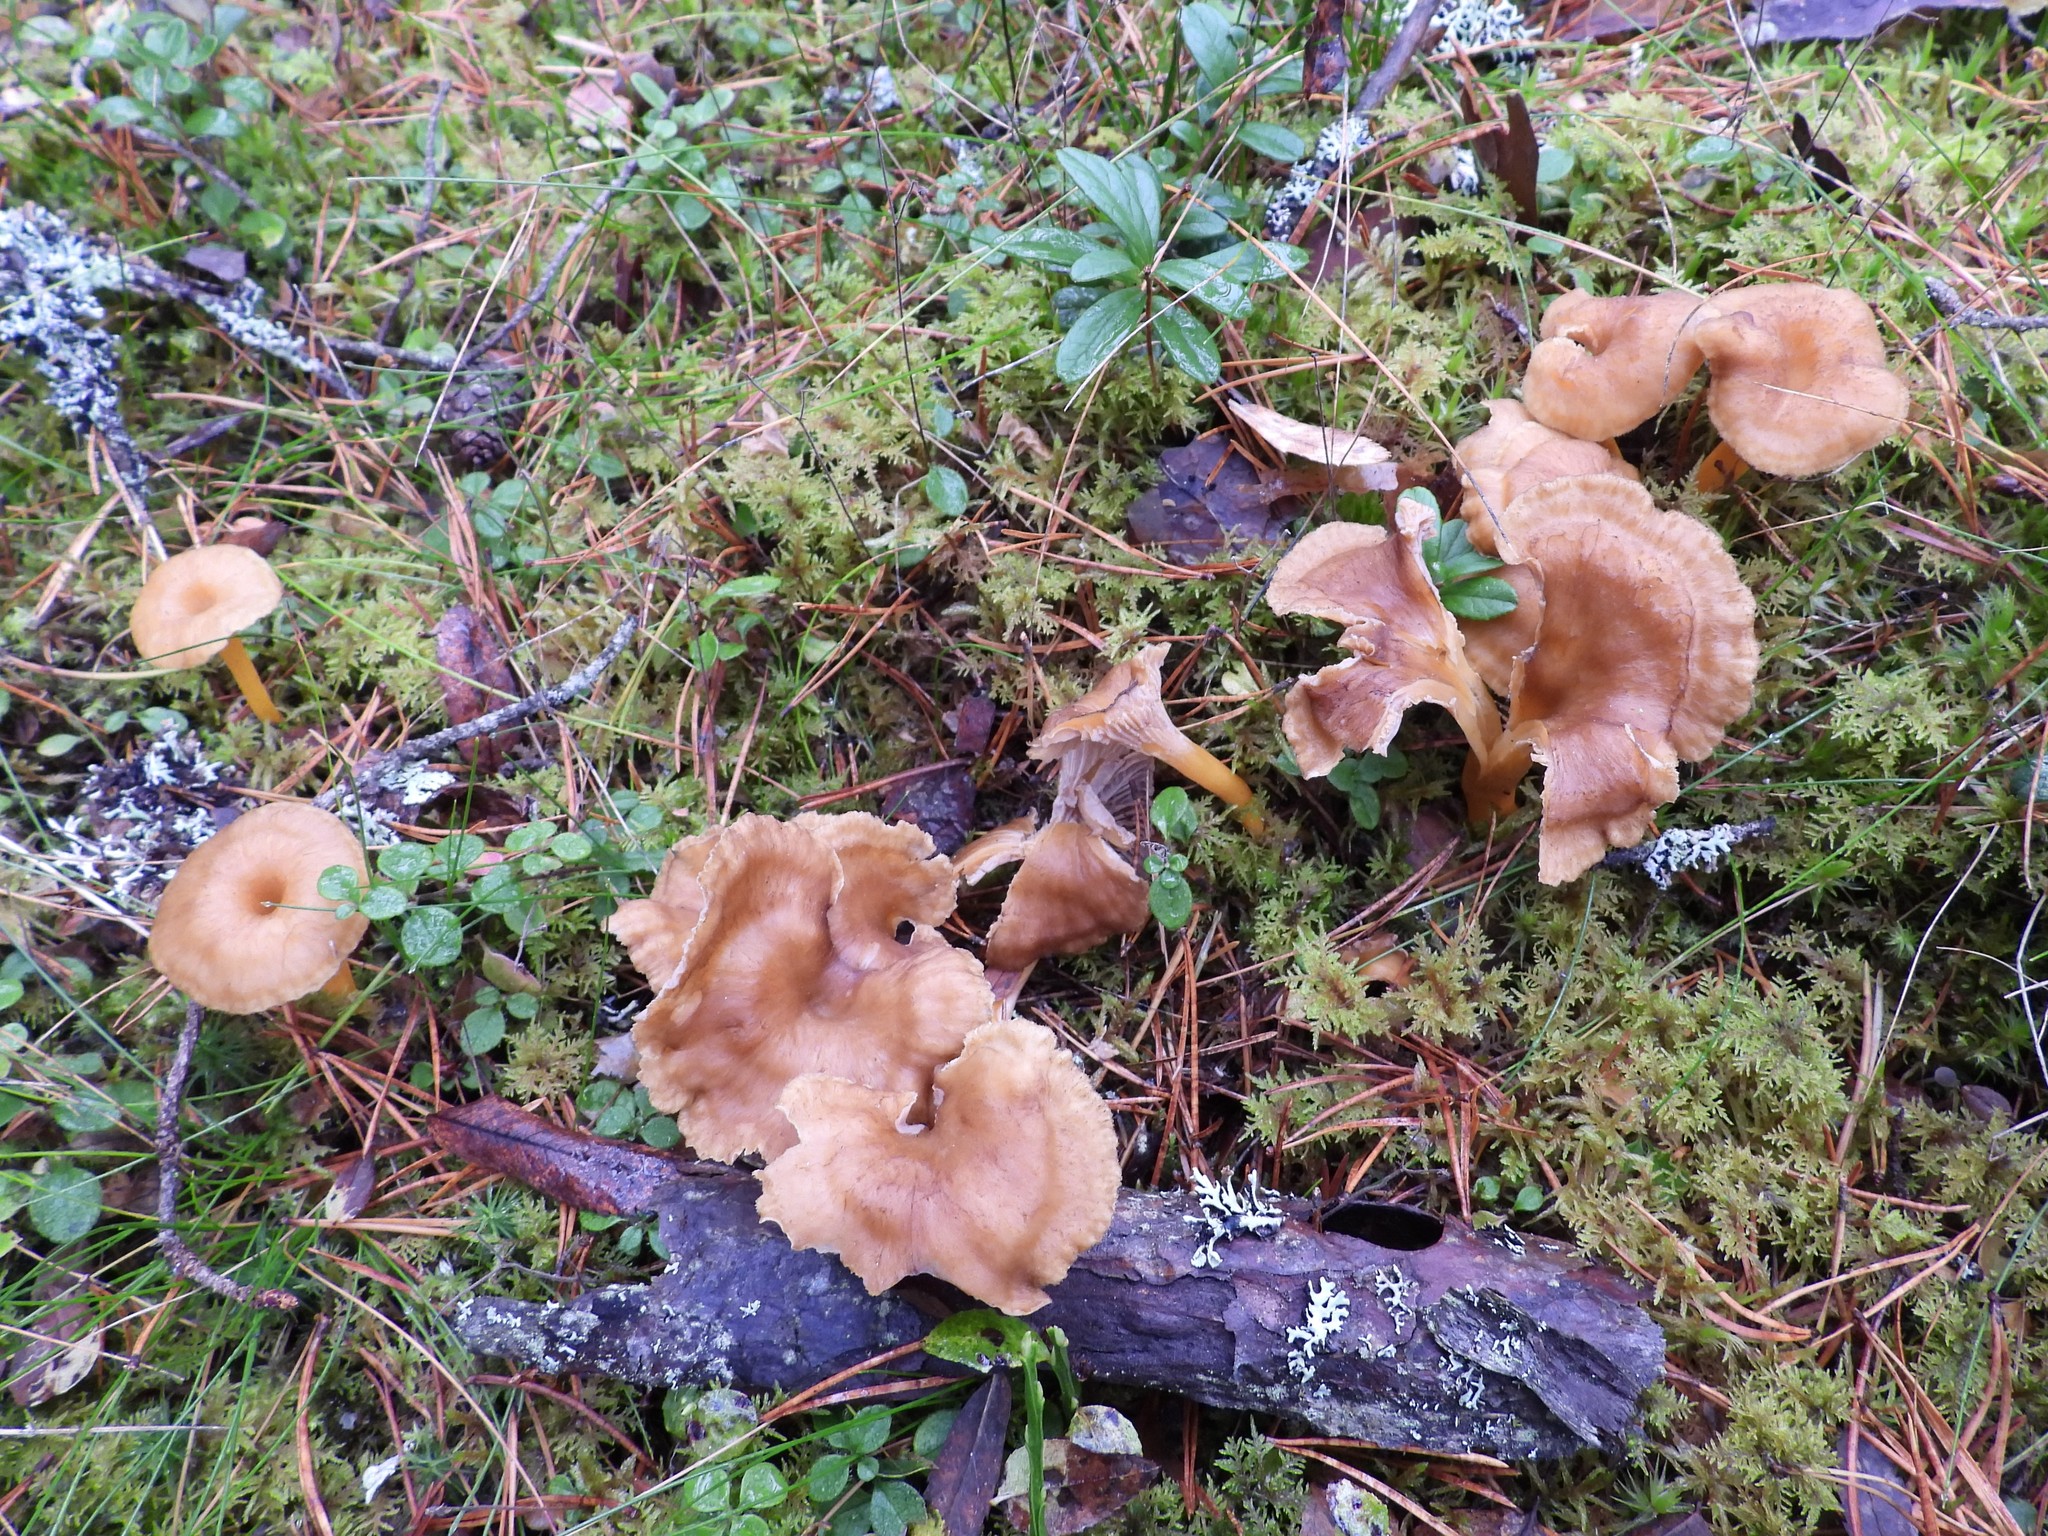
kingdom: Fungi
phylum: Basidiomycota
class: Agaricomycetes
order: Cantharellales
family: Hydnaceae
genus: Craterellus
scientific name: Craterellus tubaeformis
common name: Yellowfoot
